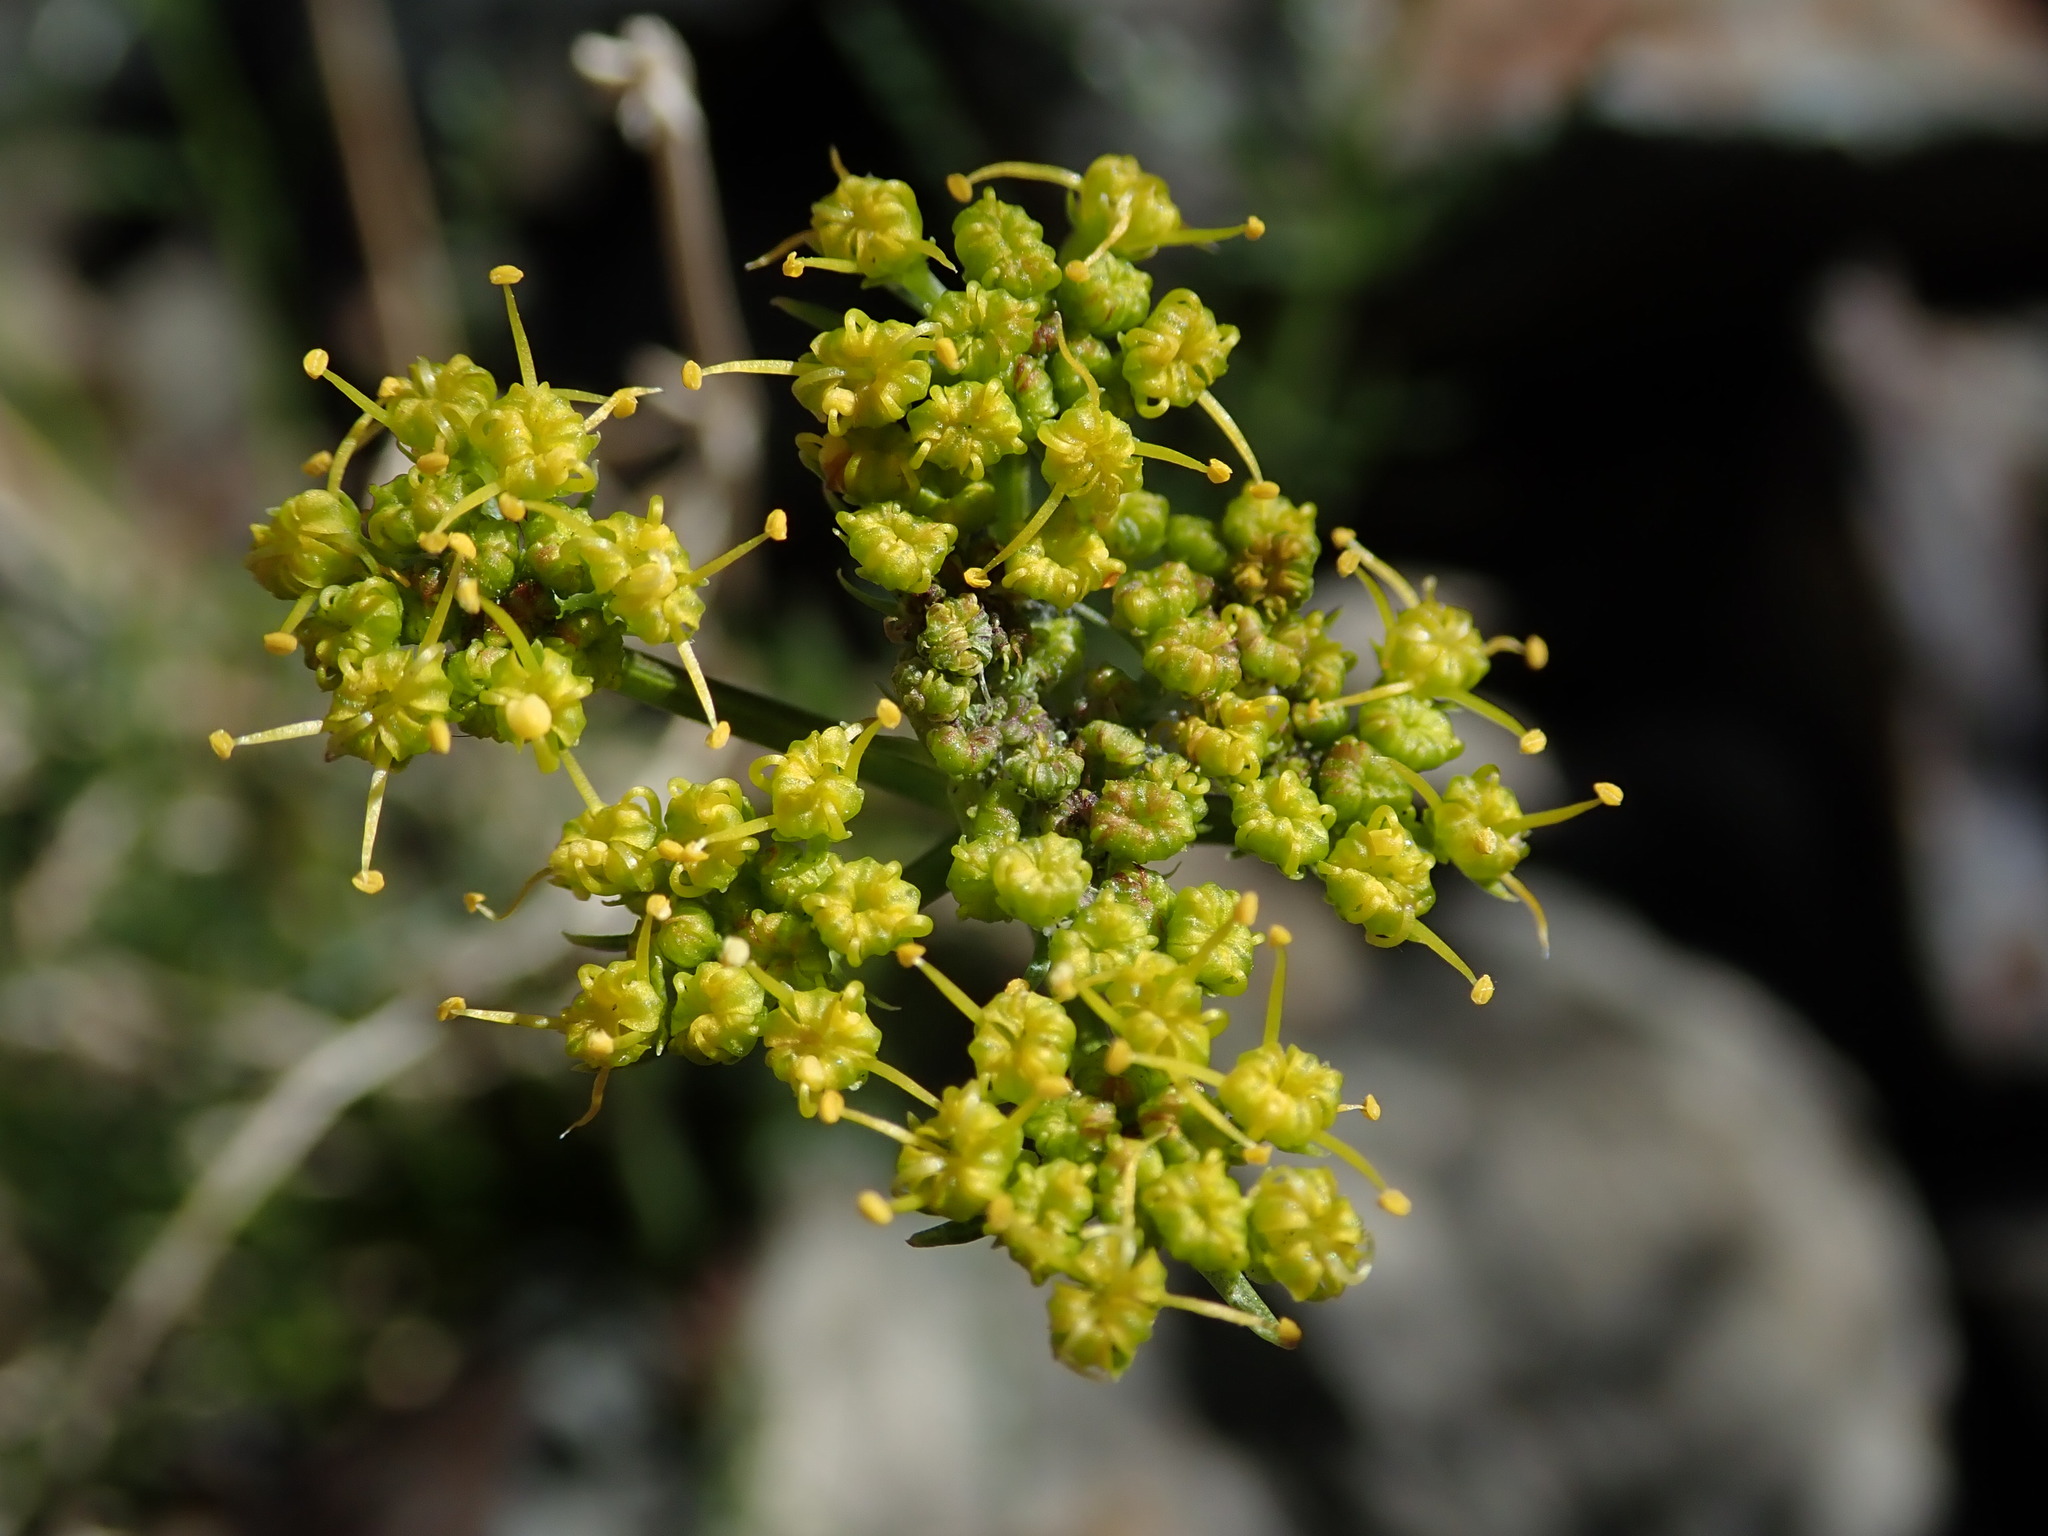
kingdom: Plantae
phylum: Tracheophyta
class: Magnoliopsida
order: Apiales
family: Apiaceae
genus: Pteryxia
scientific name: Pteryxia petraea
